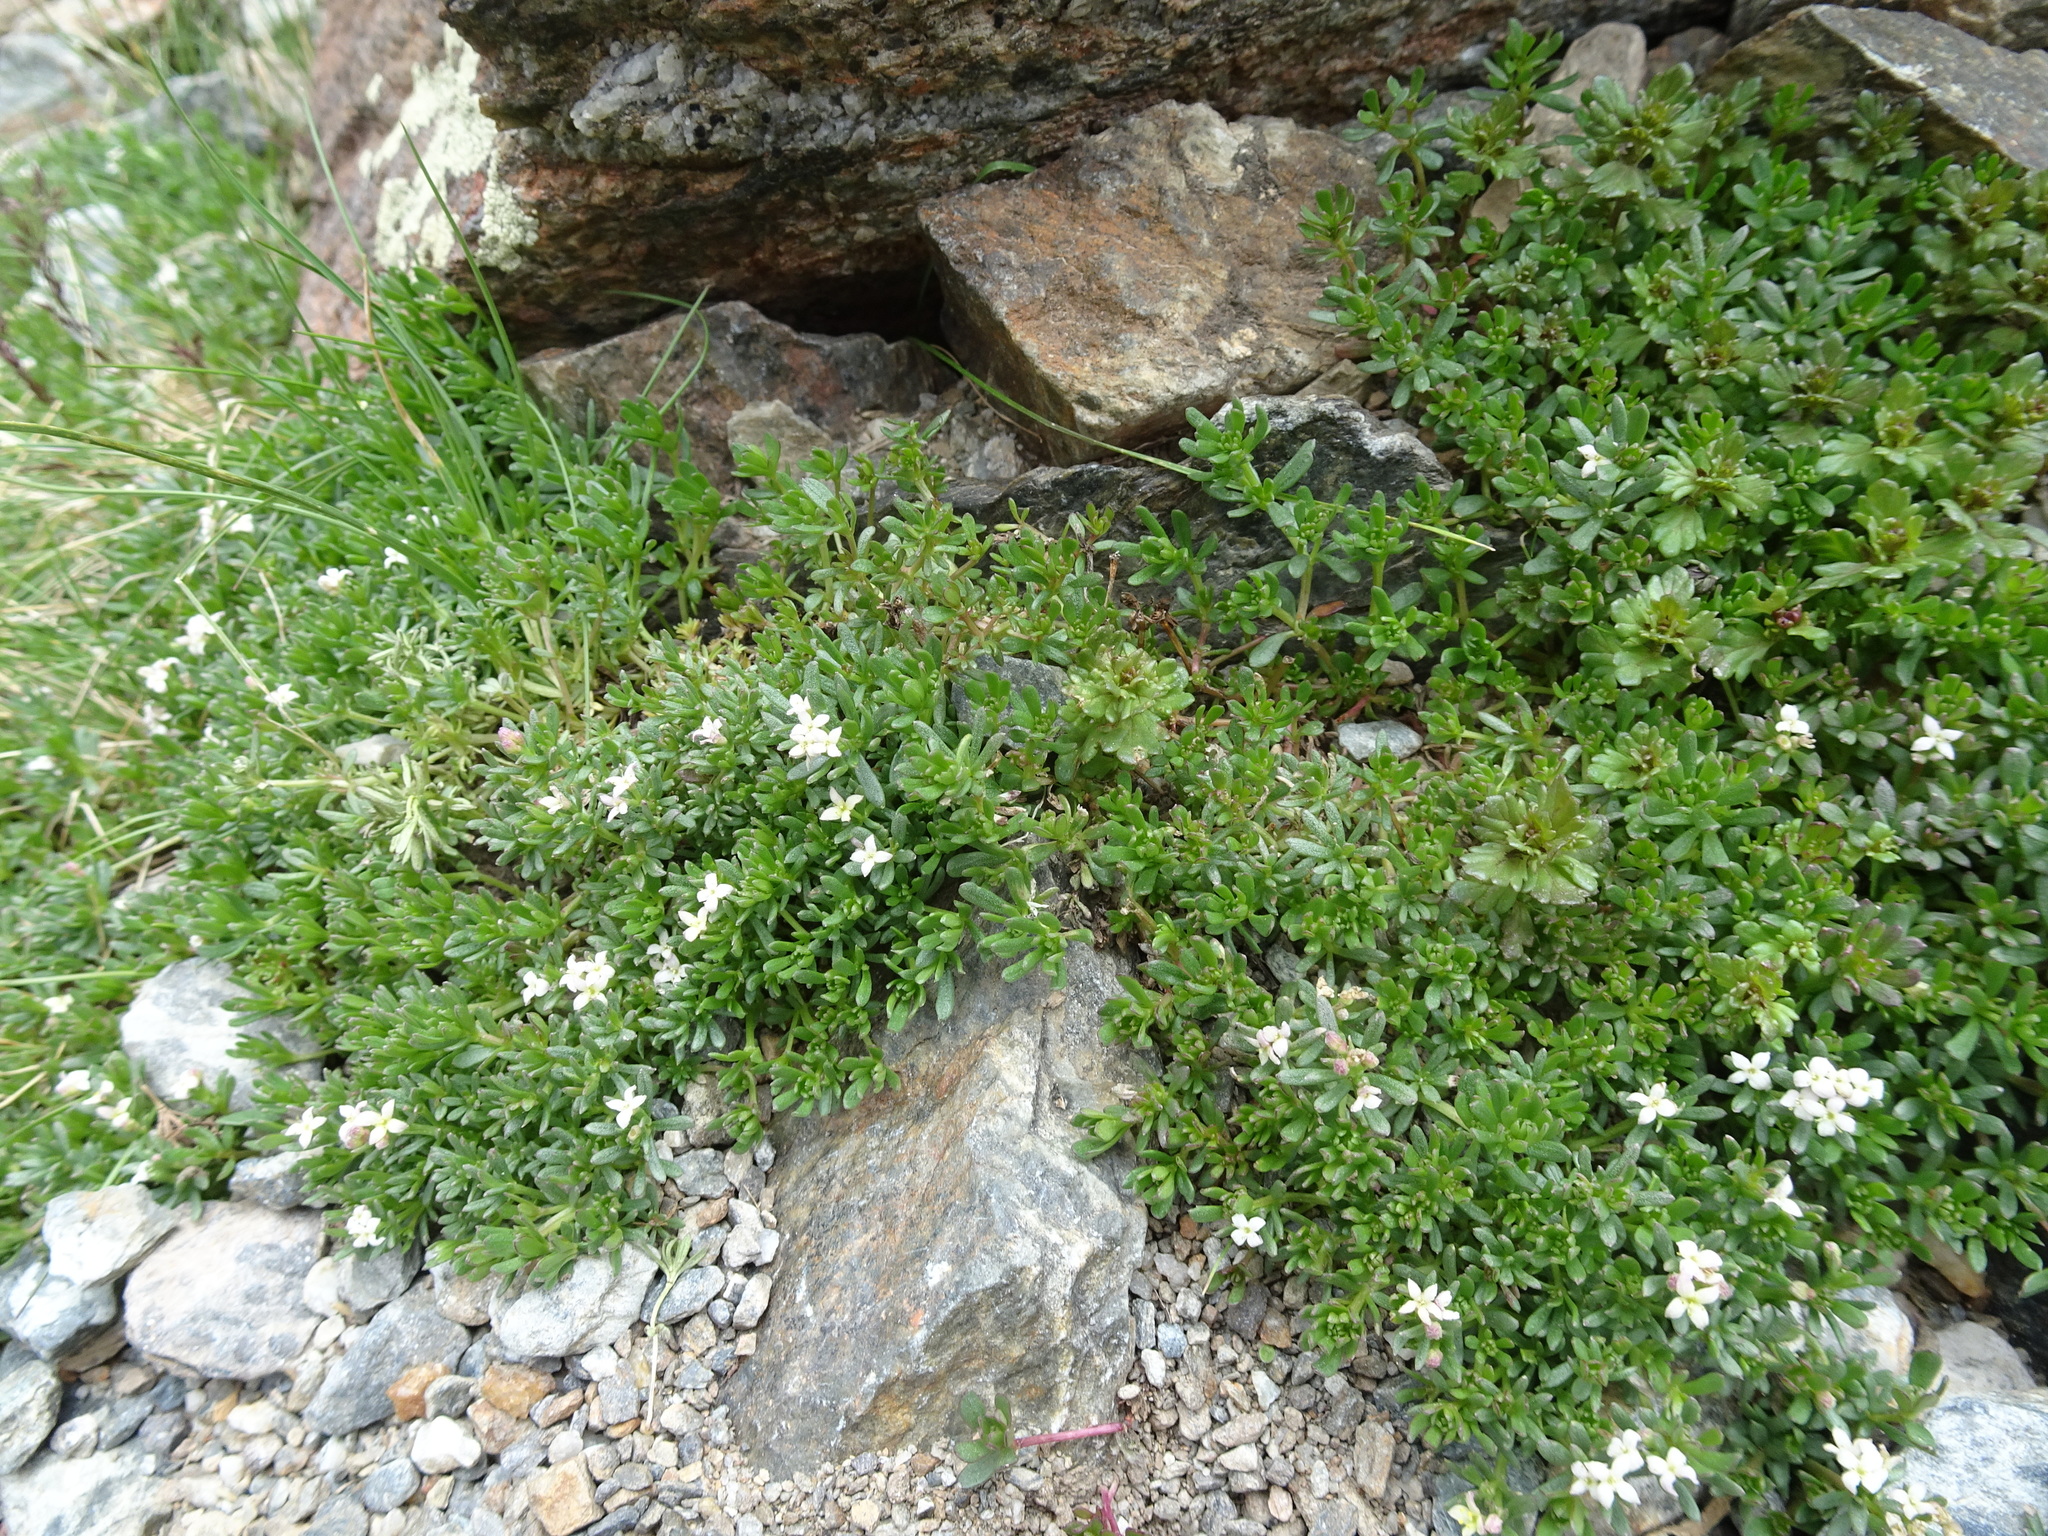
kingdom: Plantae
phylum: Tracheophyta
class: Magnoliopsida
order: Gentianales
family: Rubiaceae
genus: Galium
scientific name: Galium cometerhizon
